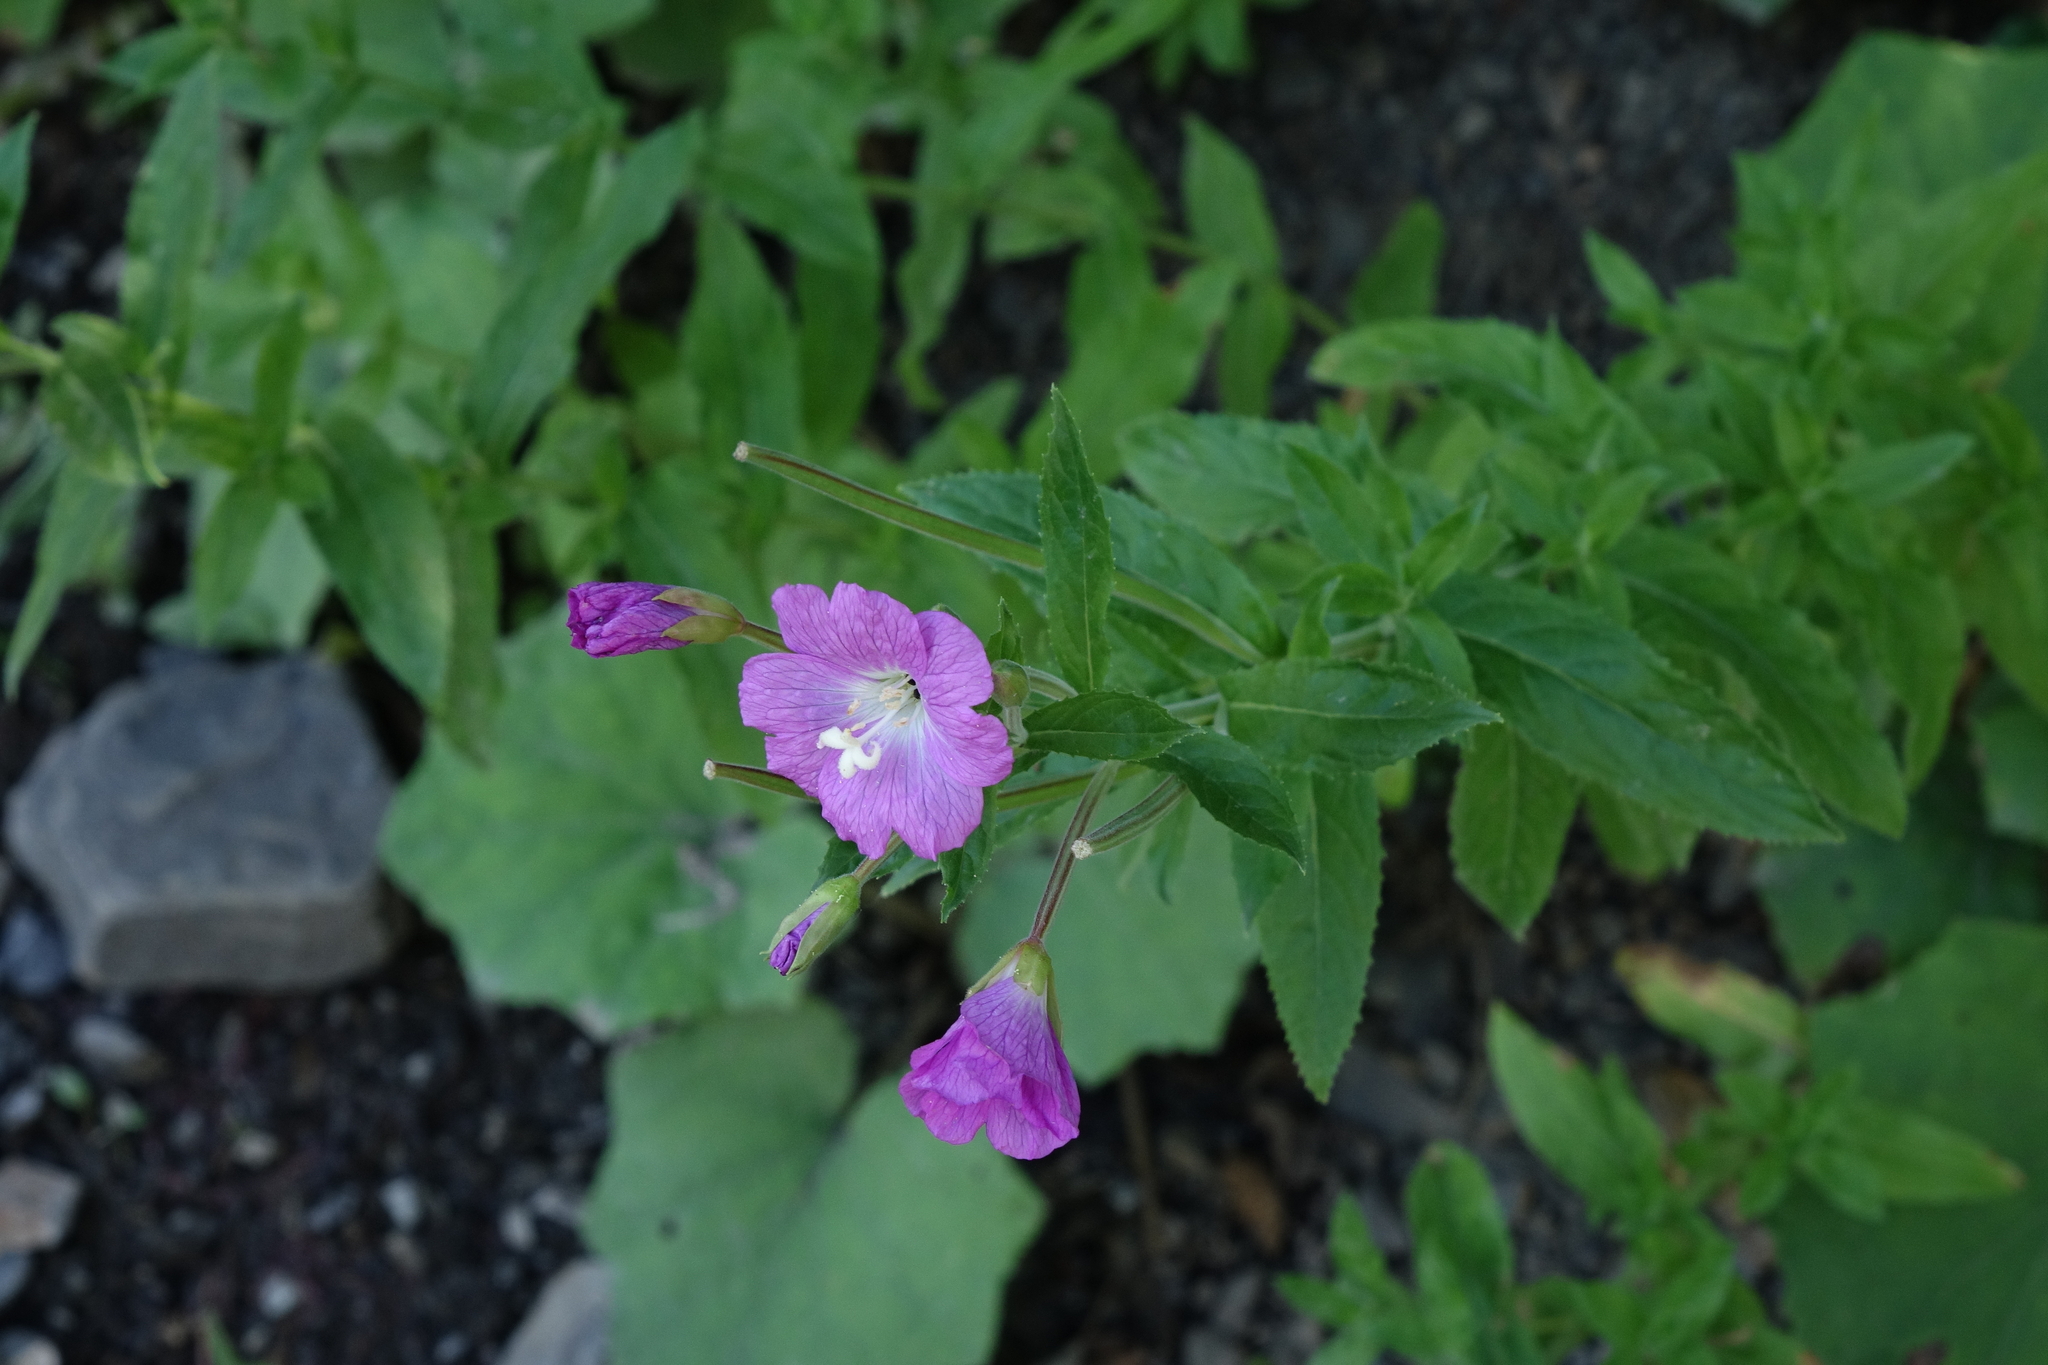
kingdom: Plantae
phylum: Tracheophyta
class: Magnoliopsida
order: Myrtales
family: Onagraceae
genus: Epilobium
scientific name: Epilobium hirsutum
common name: Great willowherb
